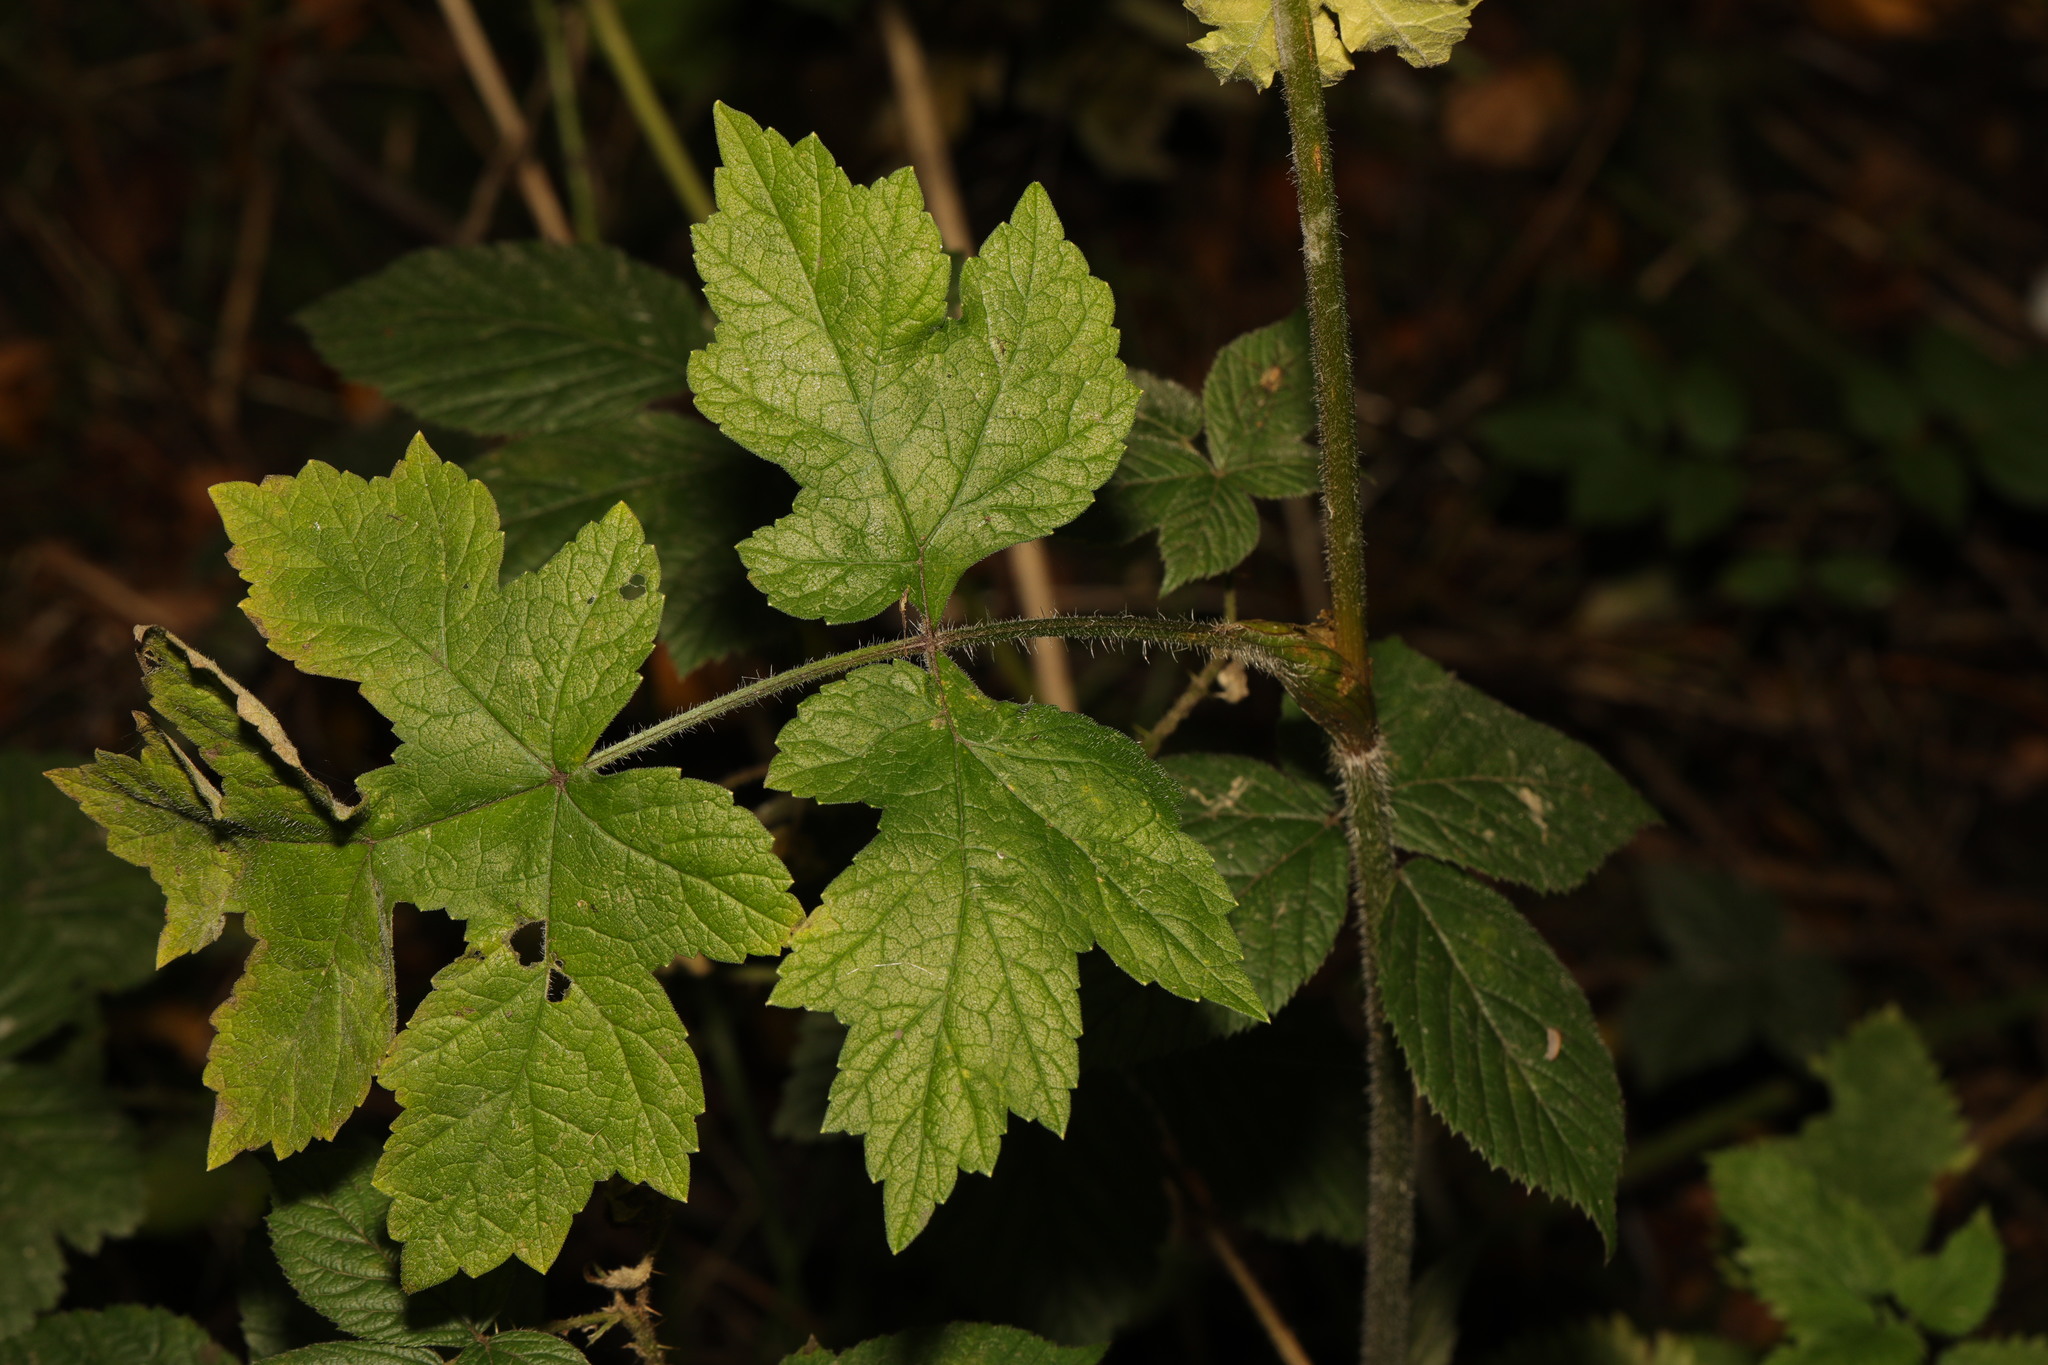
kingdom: Plantae
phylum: Tracheophyta
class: Magnoliopsida
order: Apiales
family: Apiaceae
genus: Heracleum
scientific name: Heracleum sphondylium
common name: Hogweed
